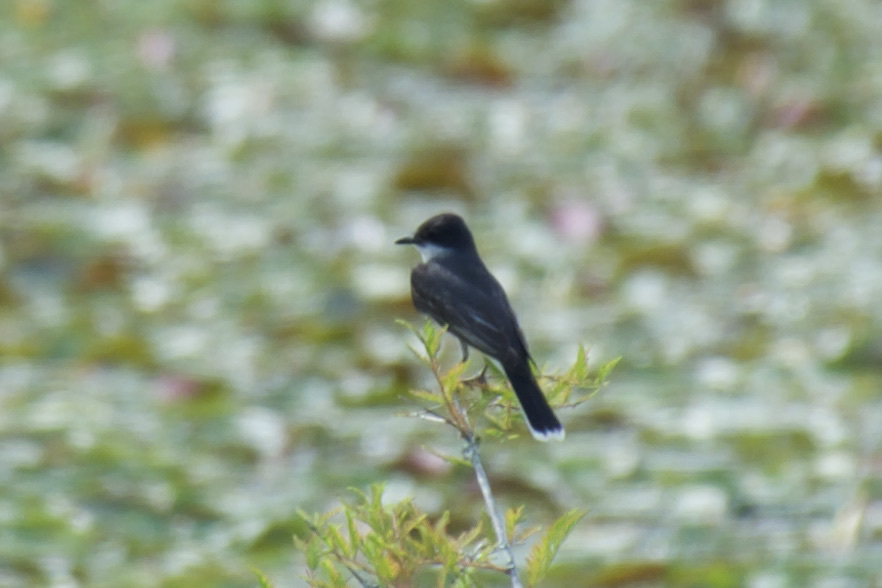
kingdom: Animalia
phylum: Chordata
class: Aves
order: Passeriformes
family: Tyrannidae
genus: Tyrannus
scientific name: Tyrannus tyrannus
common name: Eastern kingbird
